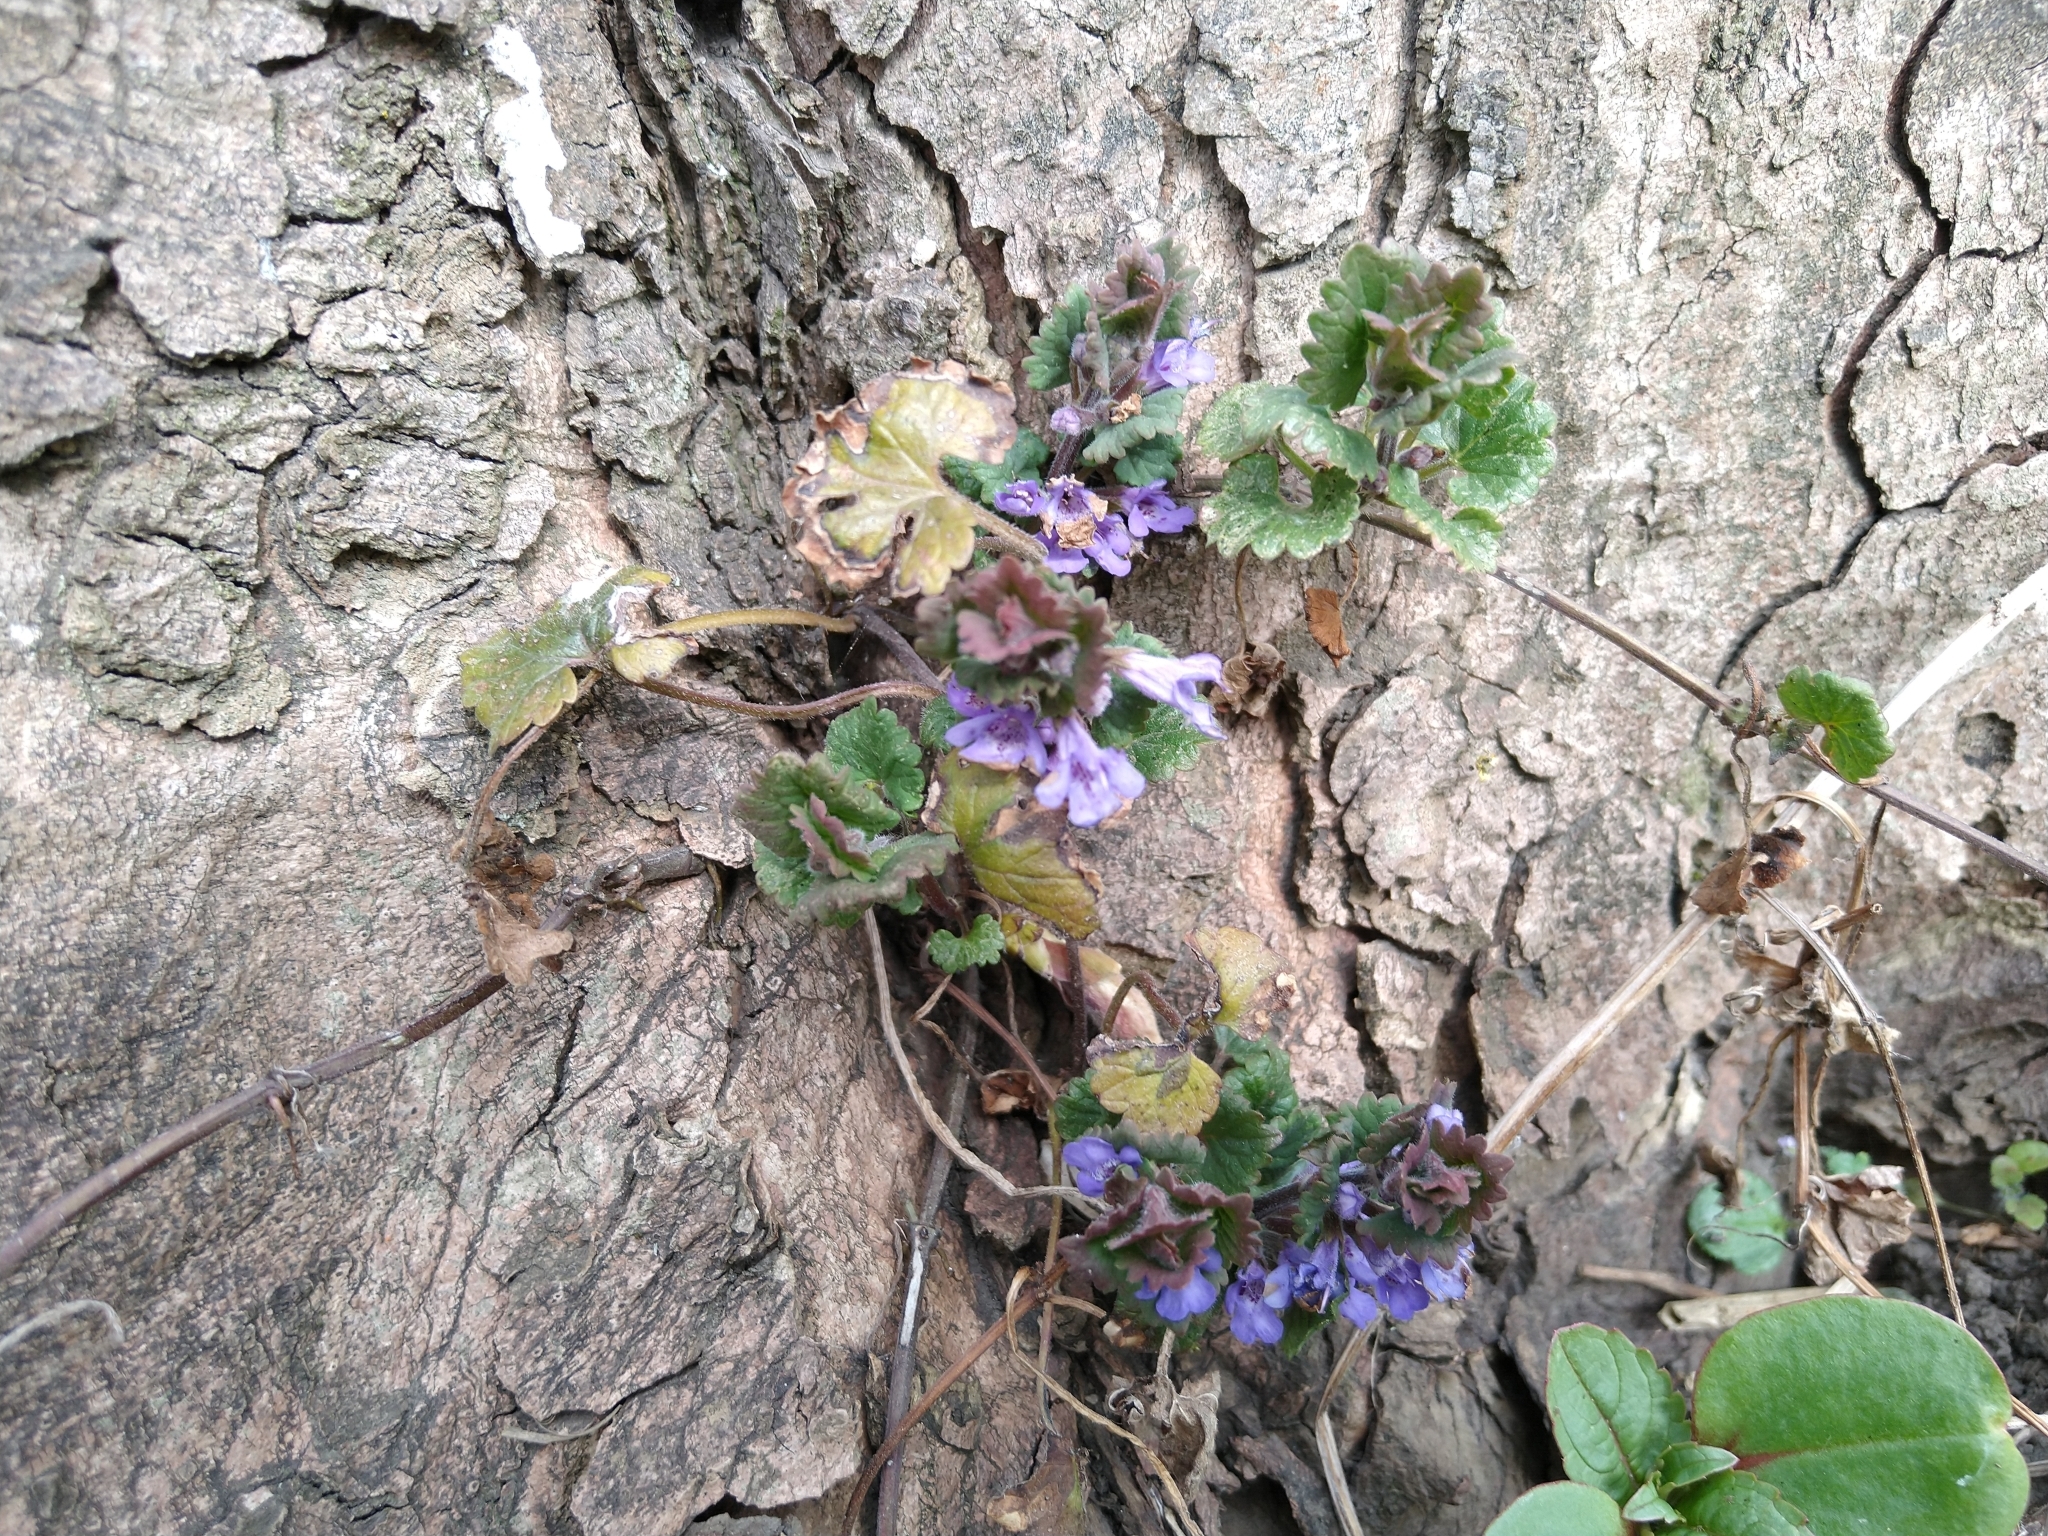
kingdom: Plantae
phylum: Tracheophyta
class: Magnoliopsida
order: Lamiales
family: Lamiaceae
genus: Glechoma
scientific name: Glechoma hederacea
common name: Ground ivy
